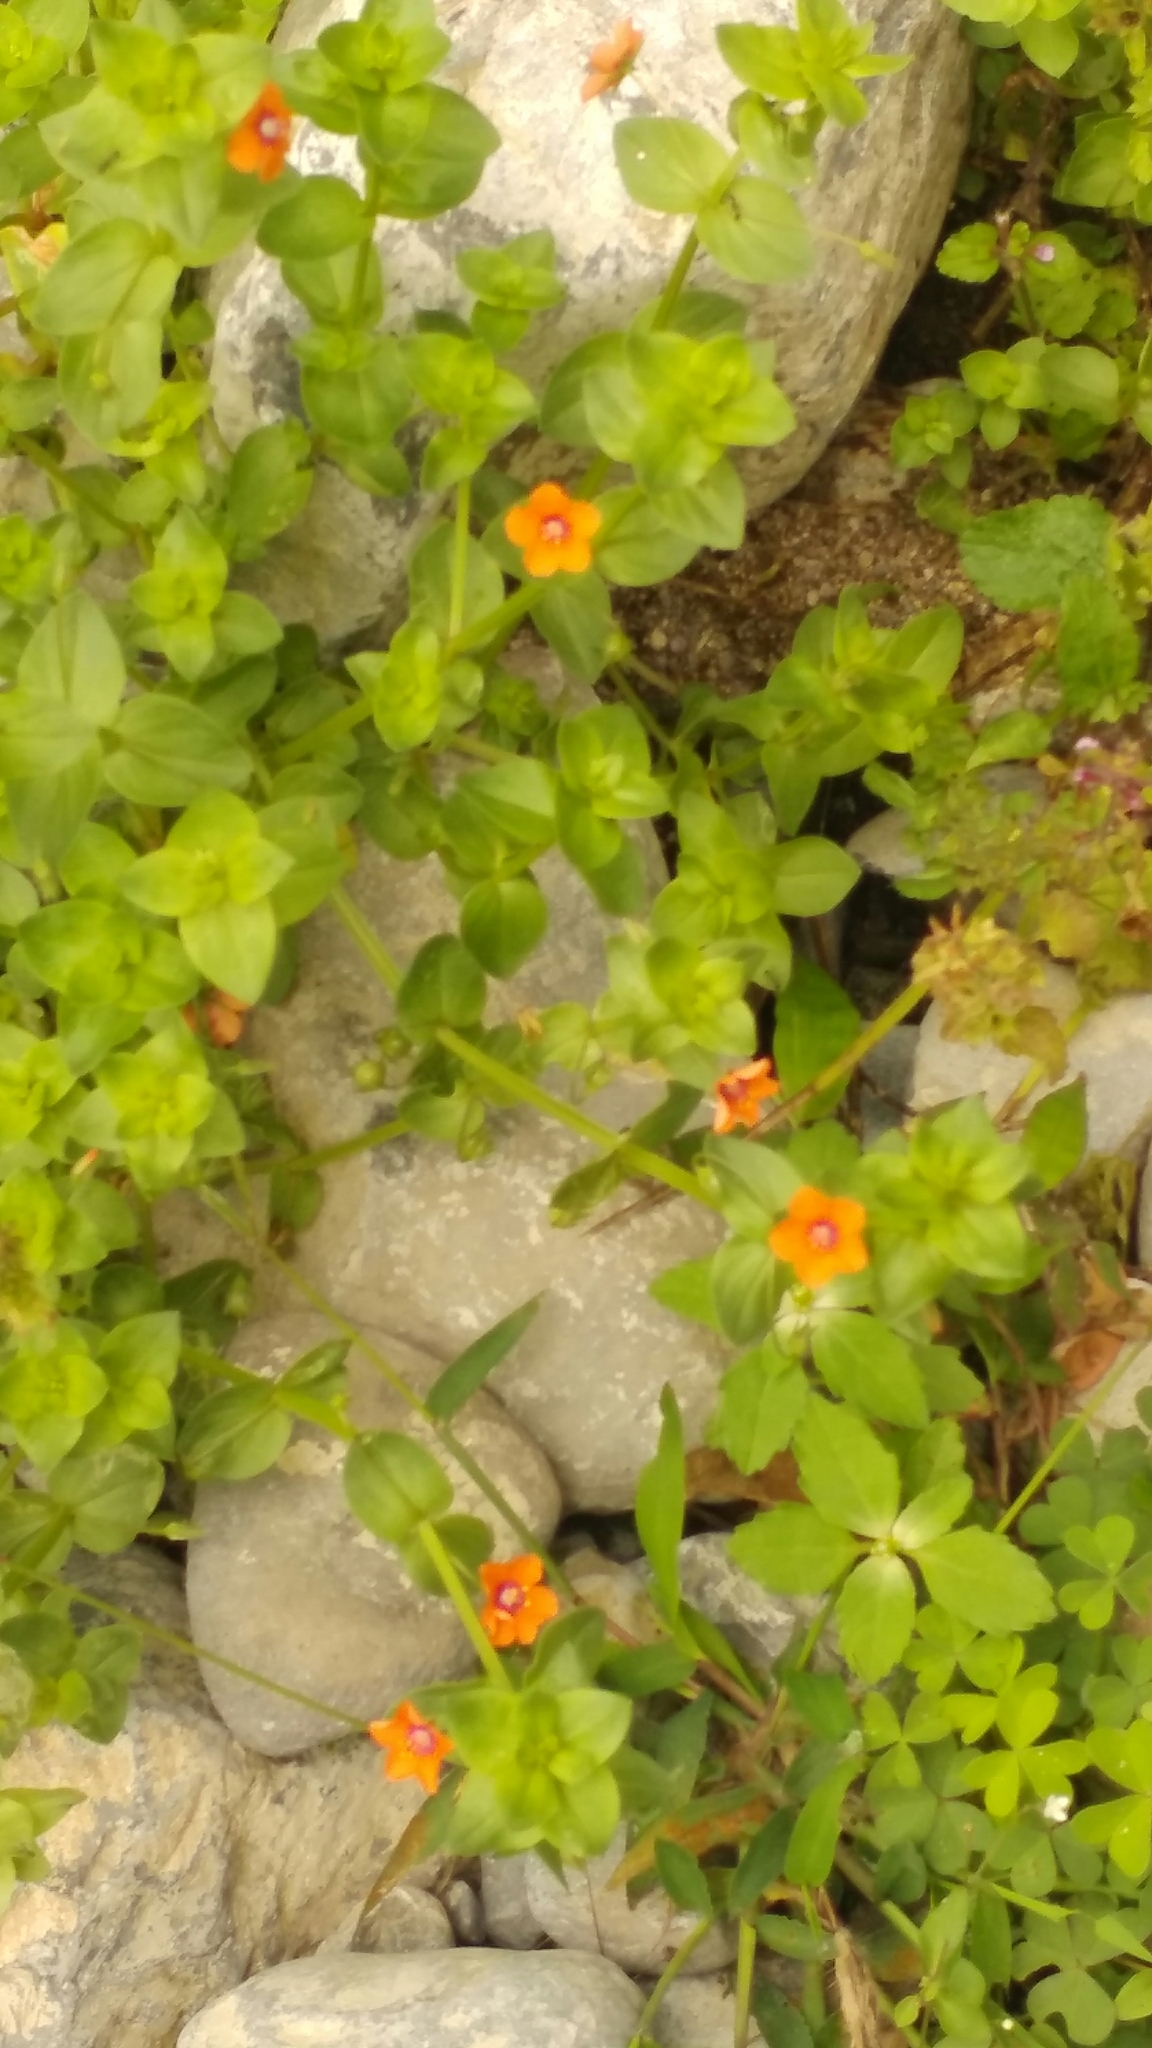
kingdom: Plantae
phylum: Tracheophyta
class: Magnoliopsida
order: Ericales
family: Primulaceae
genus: Lysimachia
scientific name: Lysimachia arvensis
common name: Scarlet pimpernel
